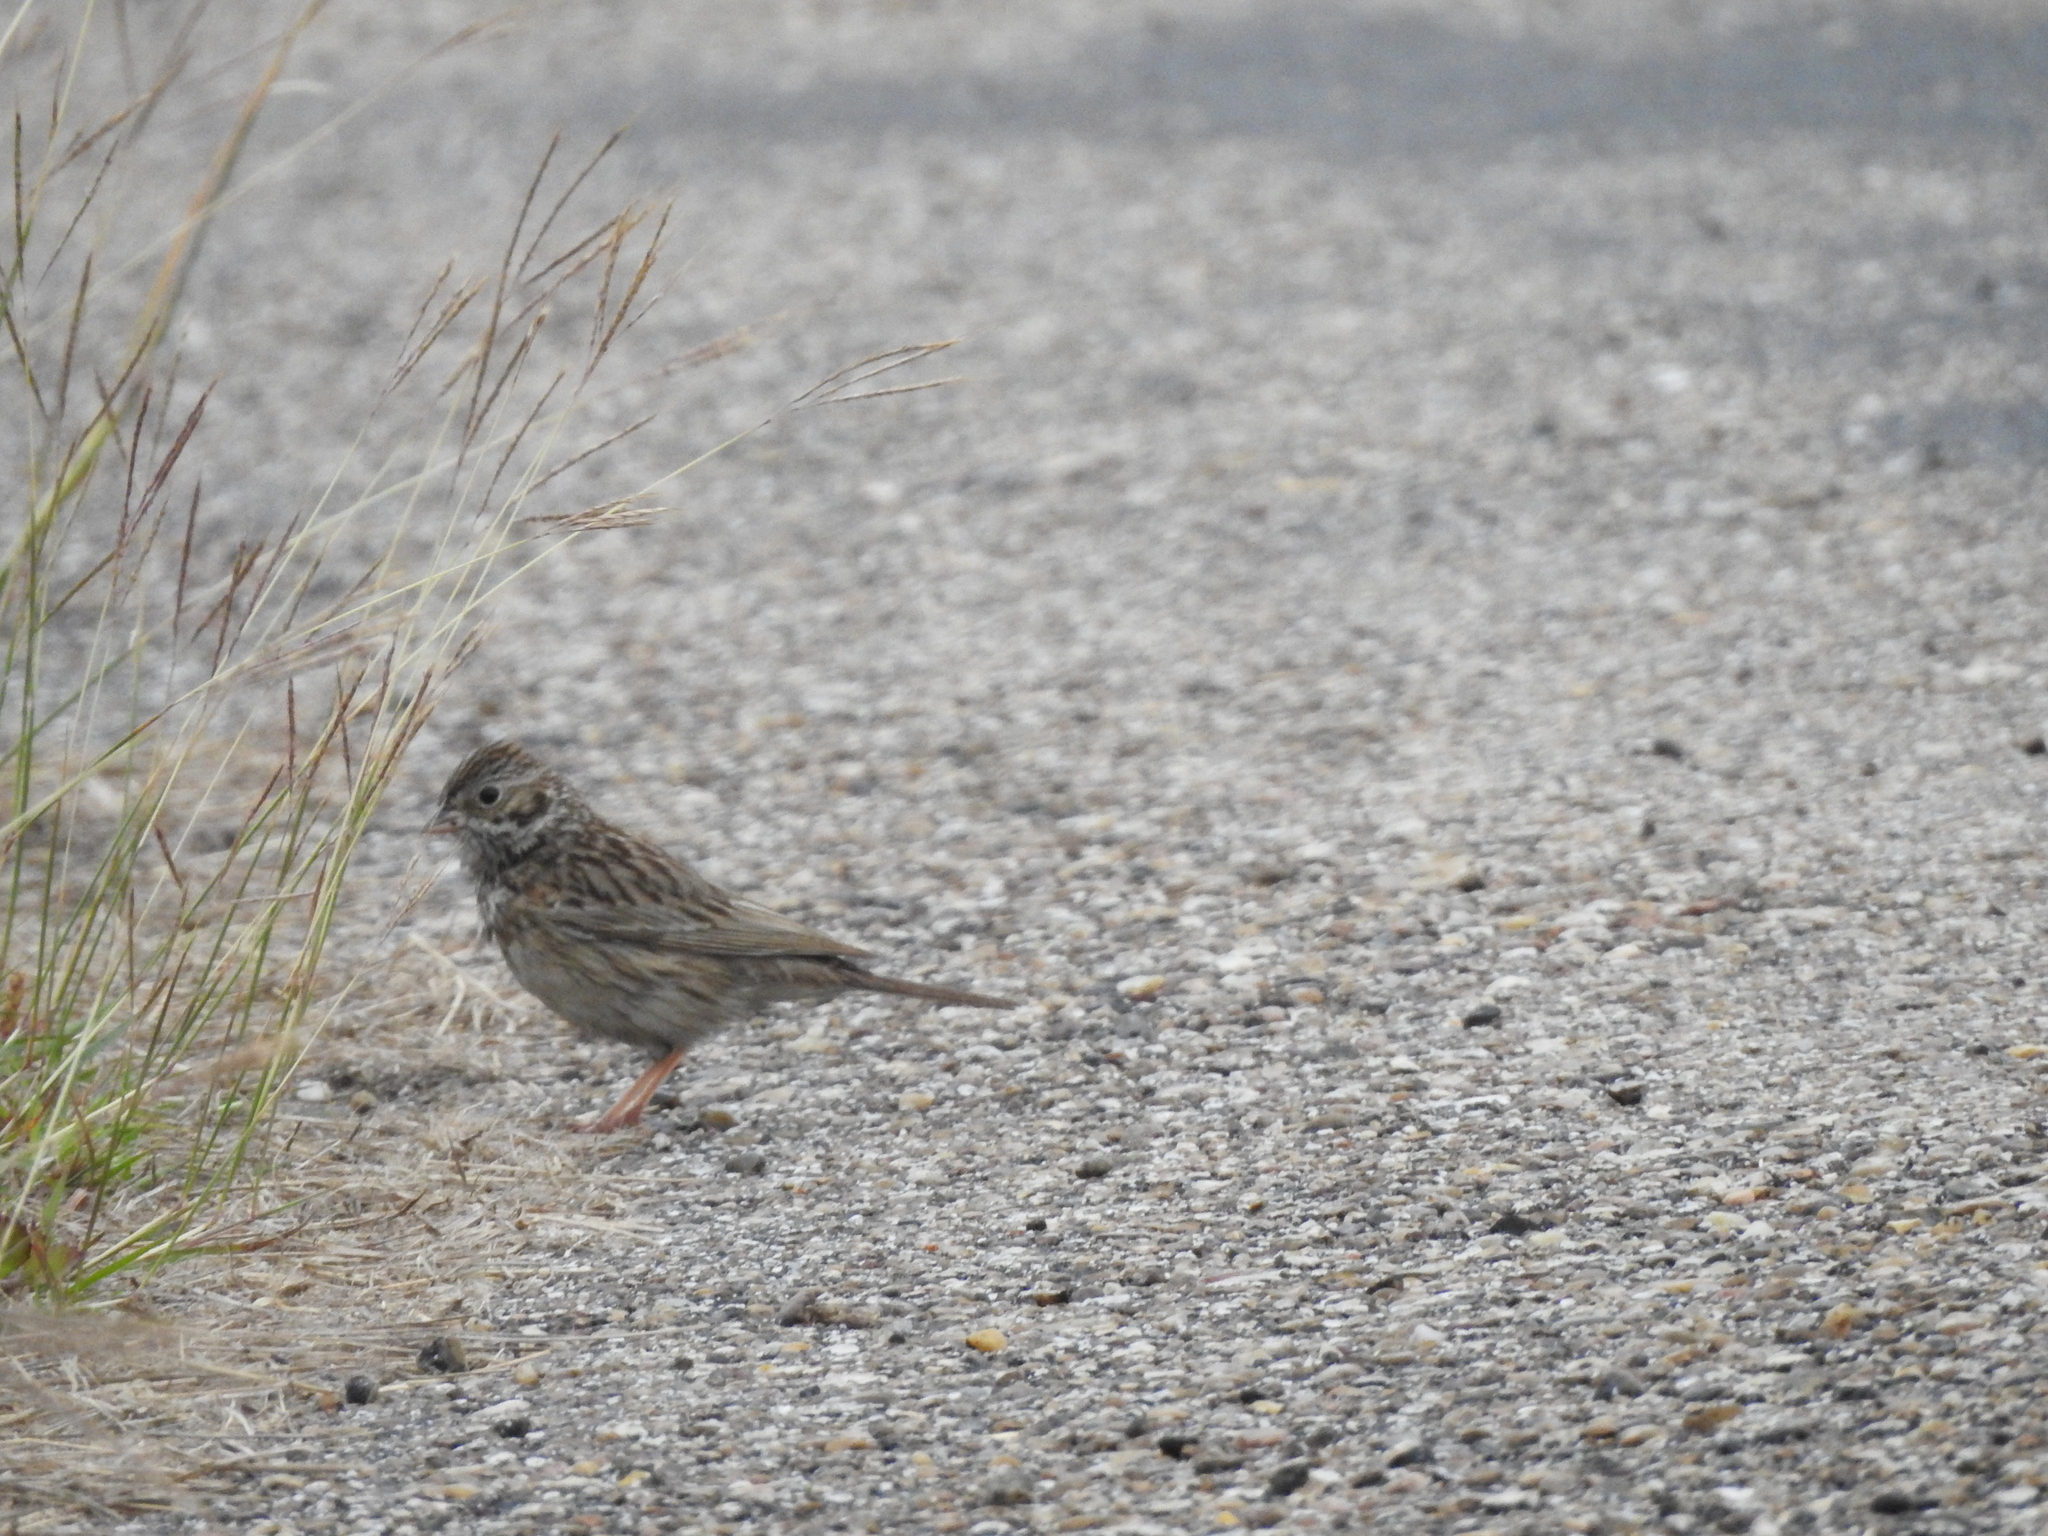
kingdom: Animalia
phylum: Chordata
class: Aves
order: Passeriformes
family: Passerellidae
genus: Passerculus
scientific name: Passerculus sandwichensis
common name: Savannah sparrow
